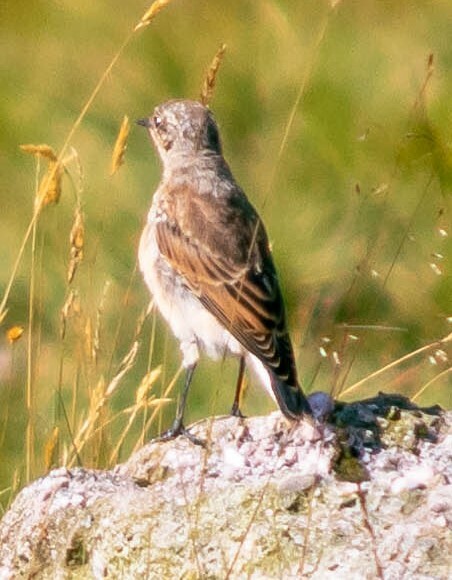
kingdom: Animalia
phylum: Chordata
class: Aves
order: Passeriformes
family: Muscicapidae
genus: Oenanthe
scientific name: Oenanthe oenanthe
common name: Northern wheatear
